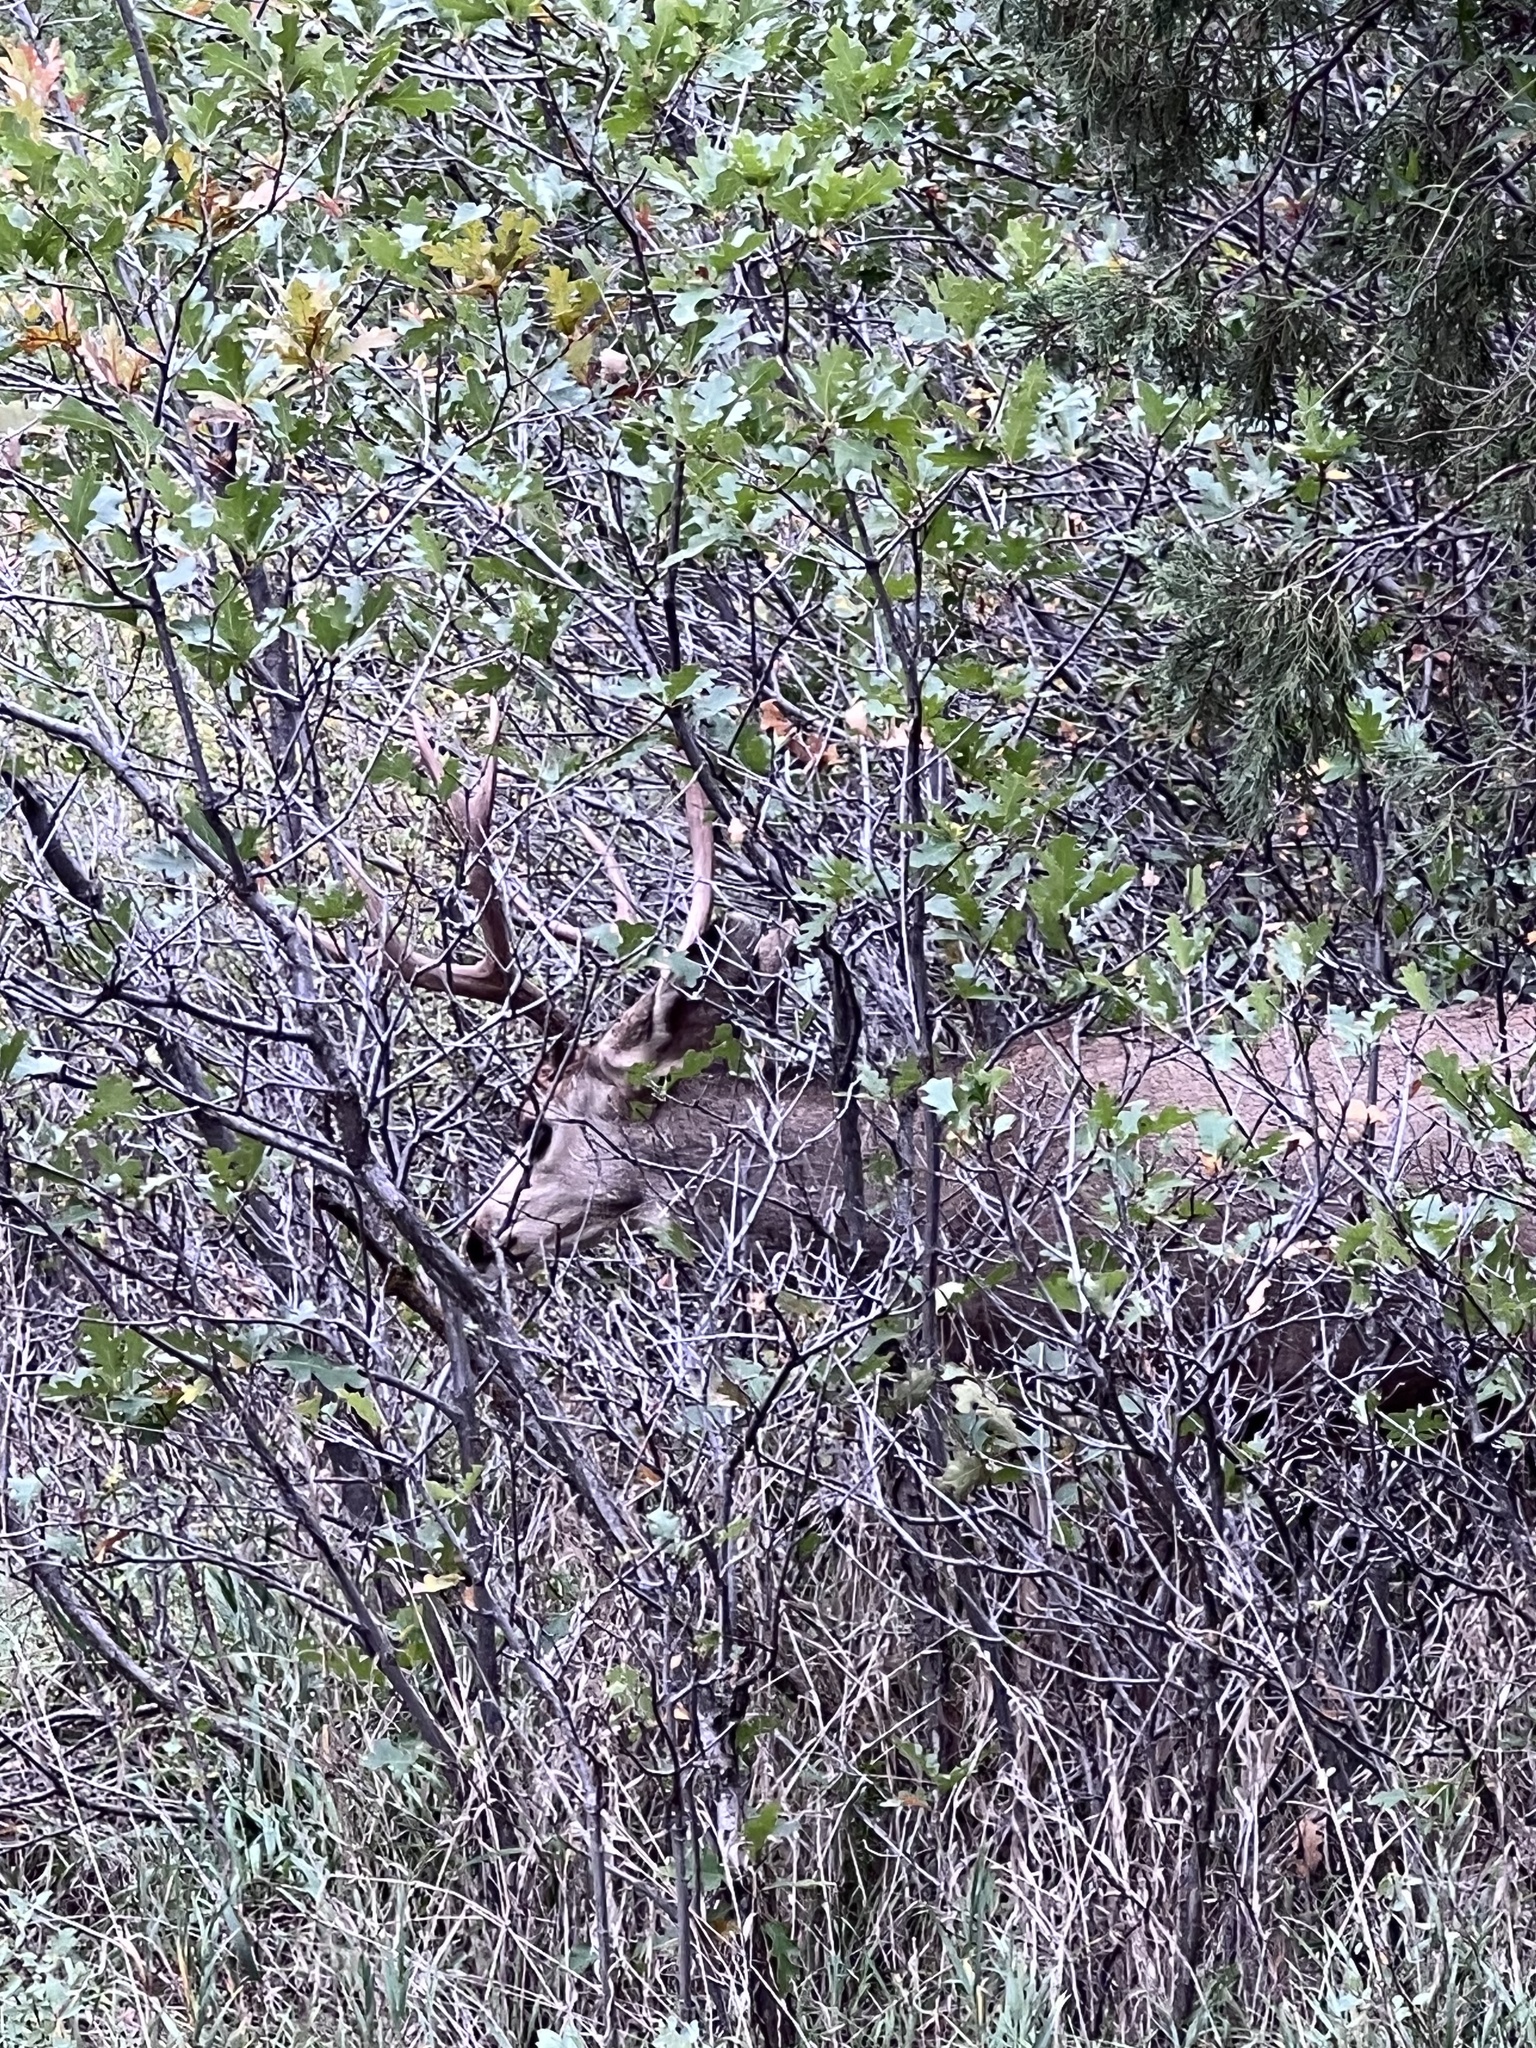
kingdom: Animalia
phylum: Chordata
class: Mammalia
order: Artiodactyla
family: Cervidae
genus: Odocoileus
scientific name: Odocoileus hemionus
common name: Mule deer
